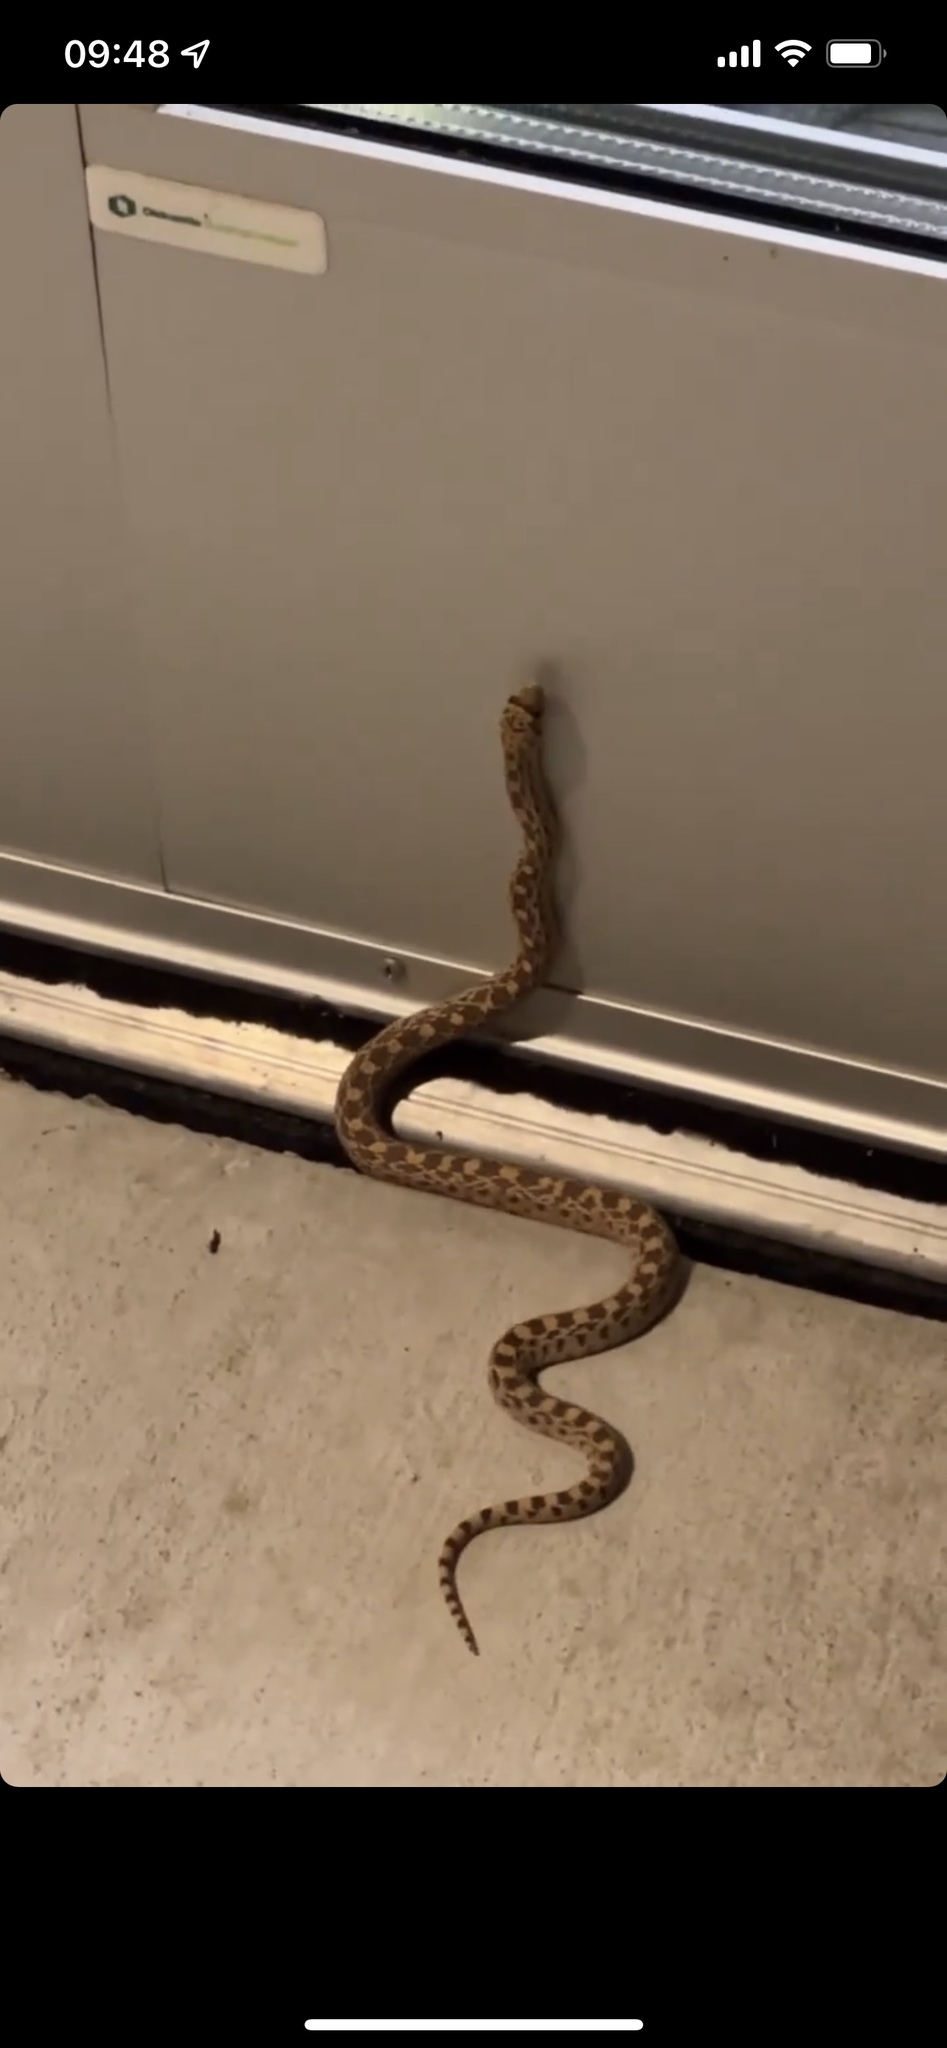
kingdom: Animalia
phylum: Chordata
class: Squamata
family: Colubridae
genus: Pituophis
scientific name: Pituophis catenifer
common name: Gopher snake
